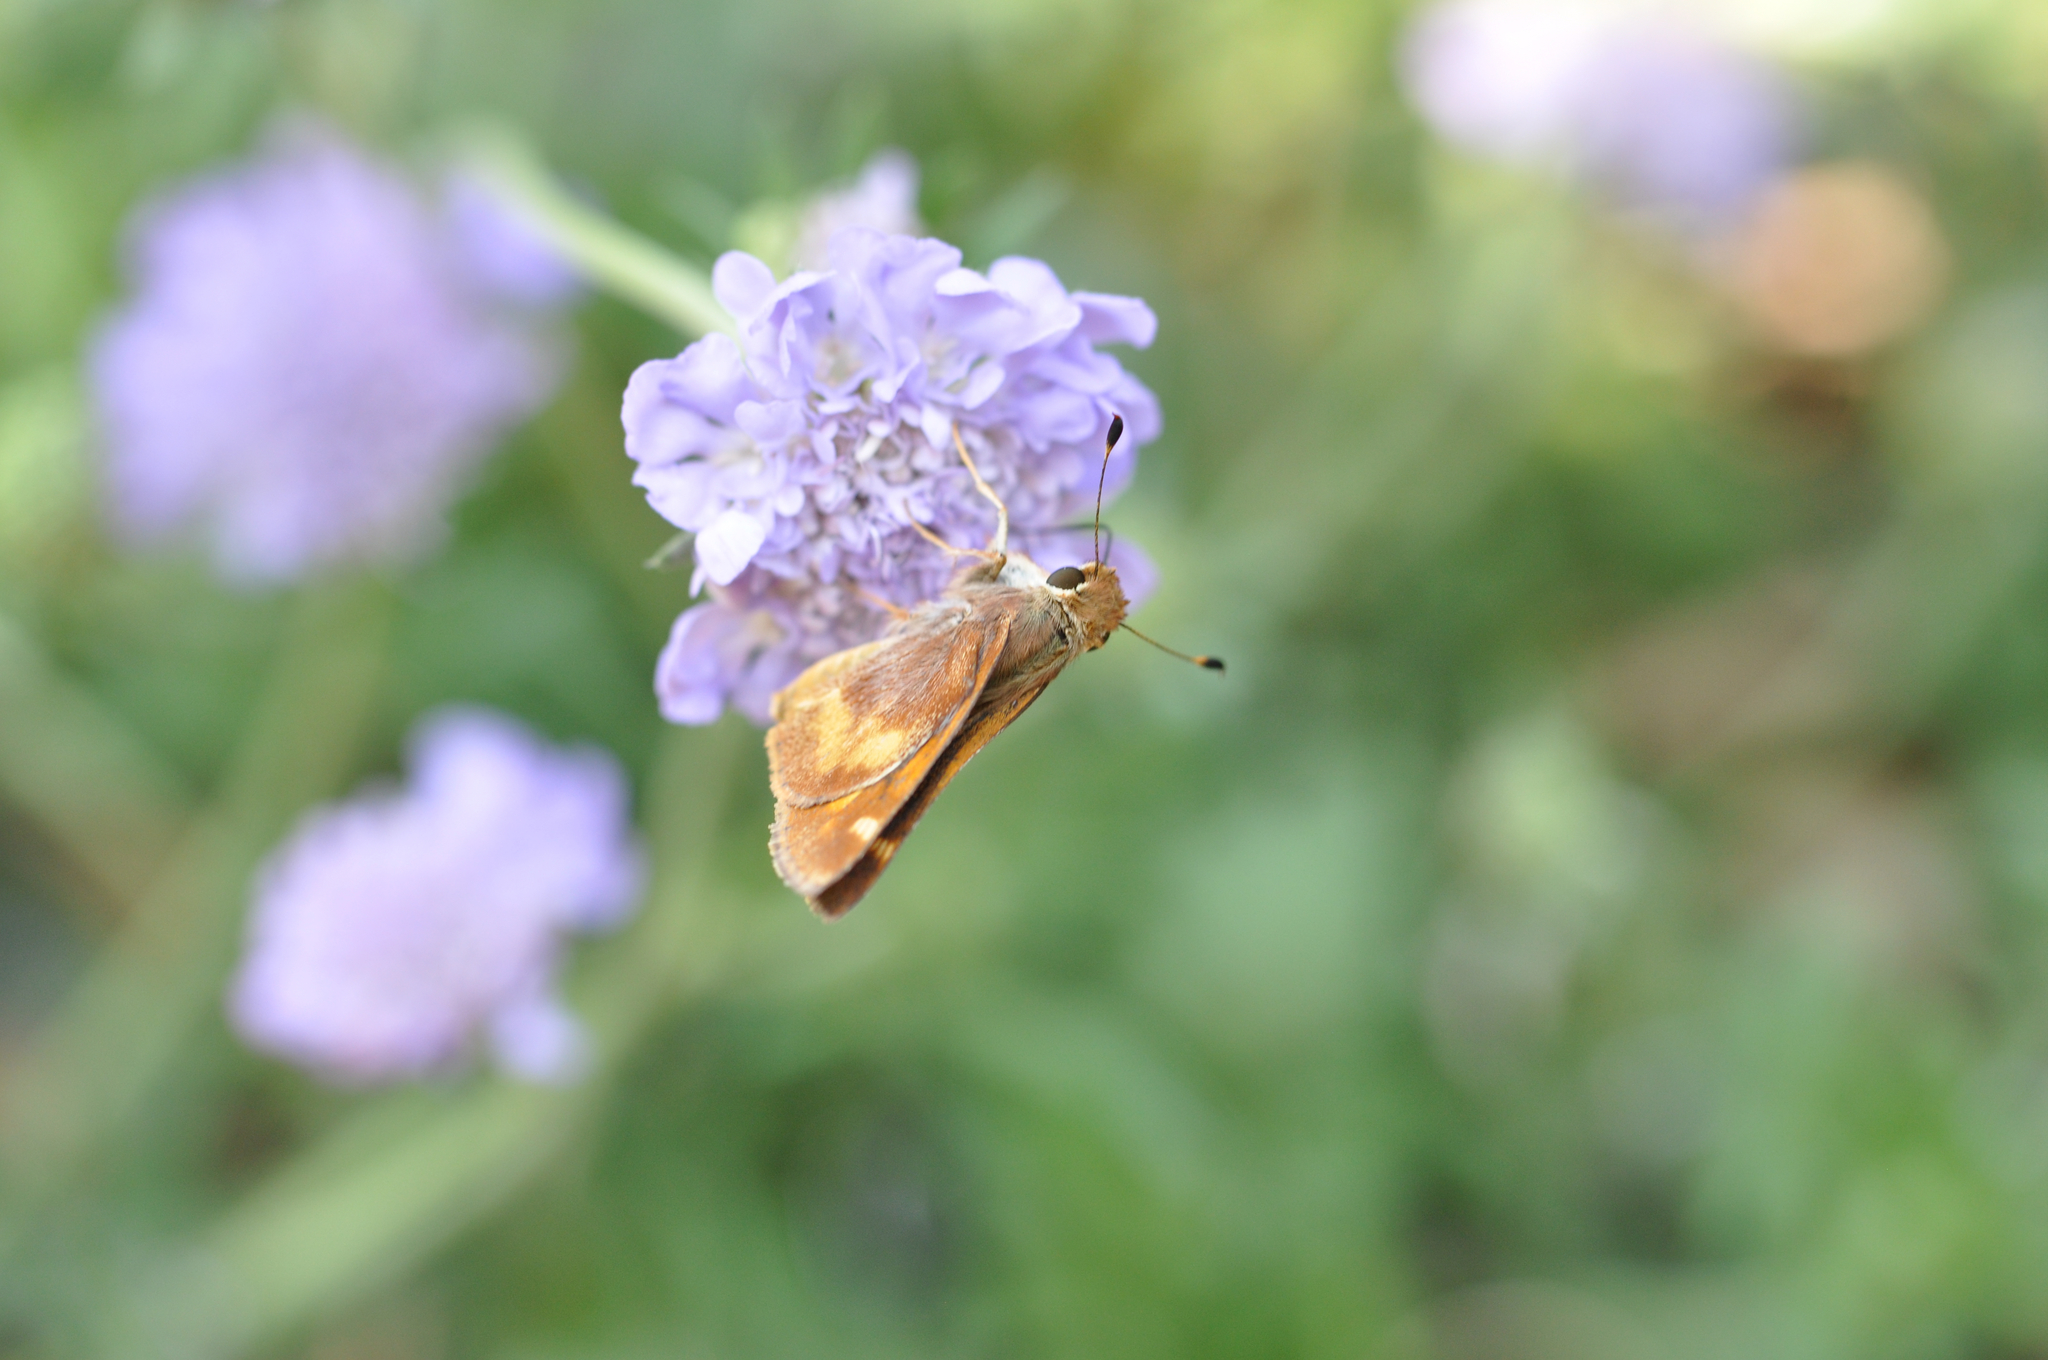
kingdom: Animalia
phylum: Arthropoda
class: Insecta
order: Lepidoptera
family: Hesperiidae
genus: Lon
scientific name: Lon melane
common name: Umber skipper
